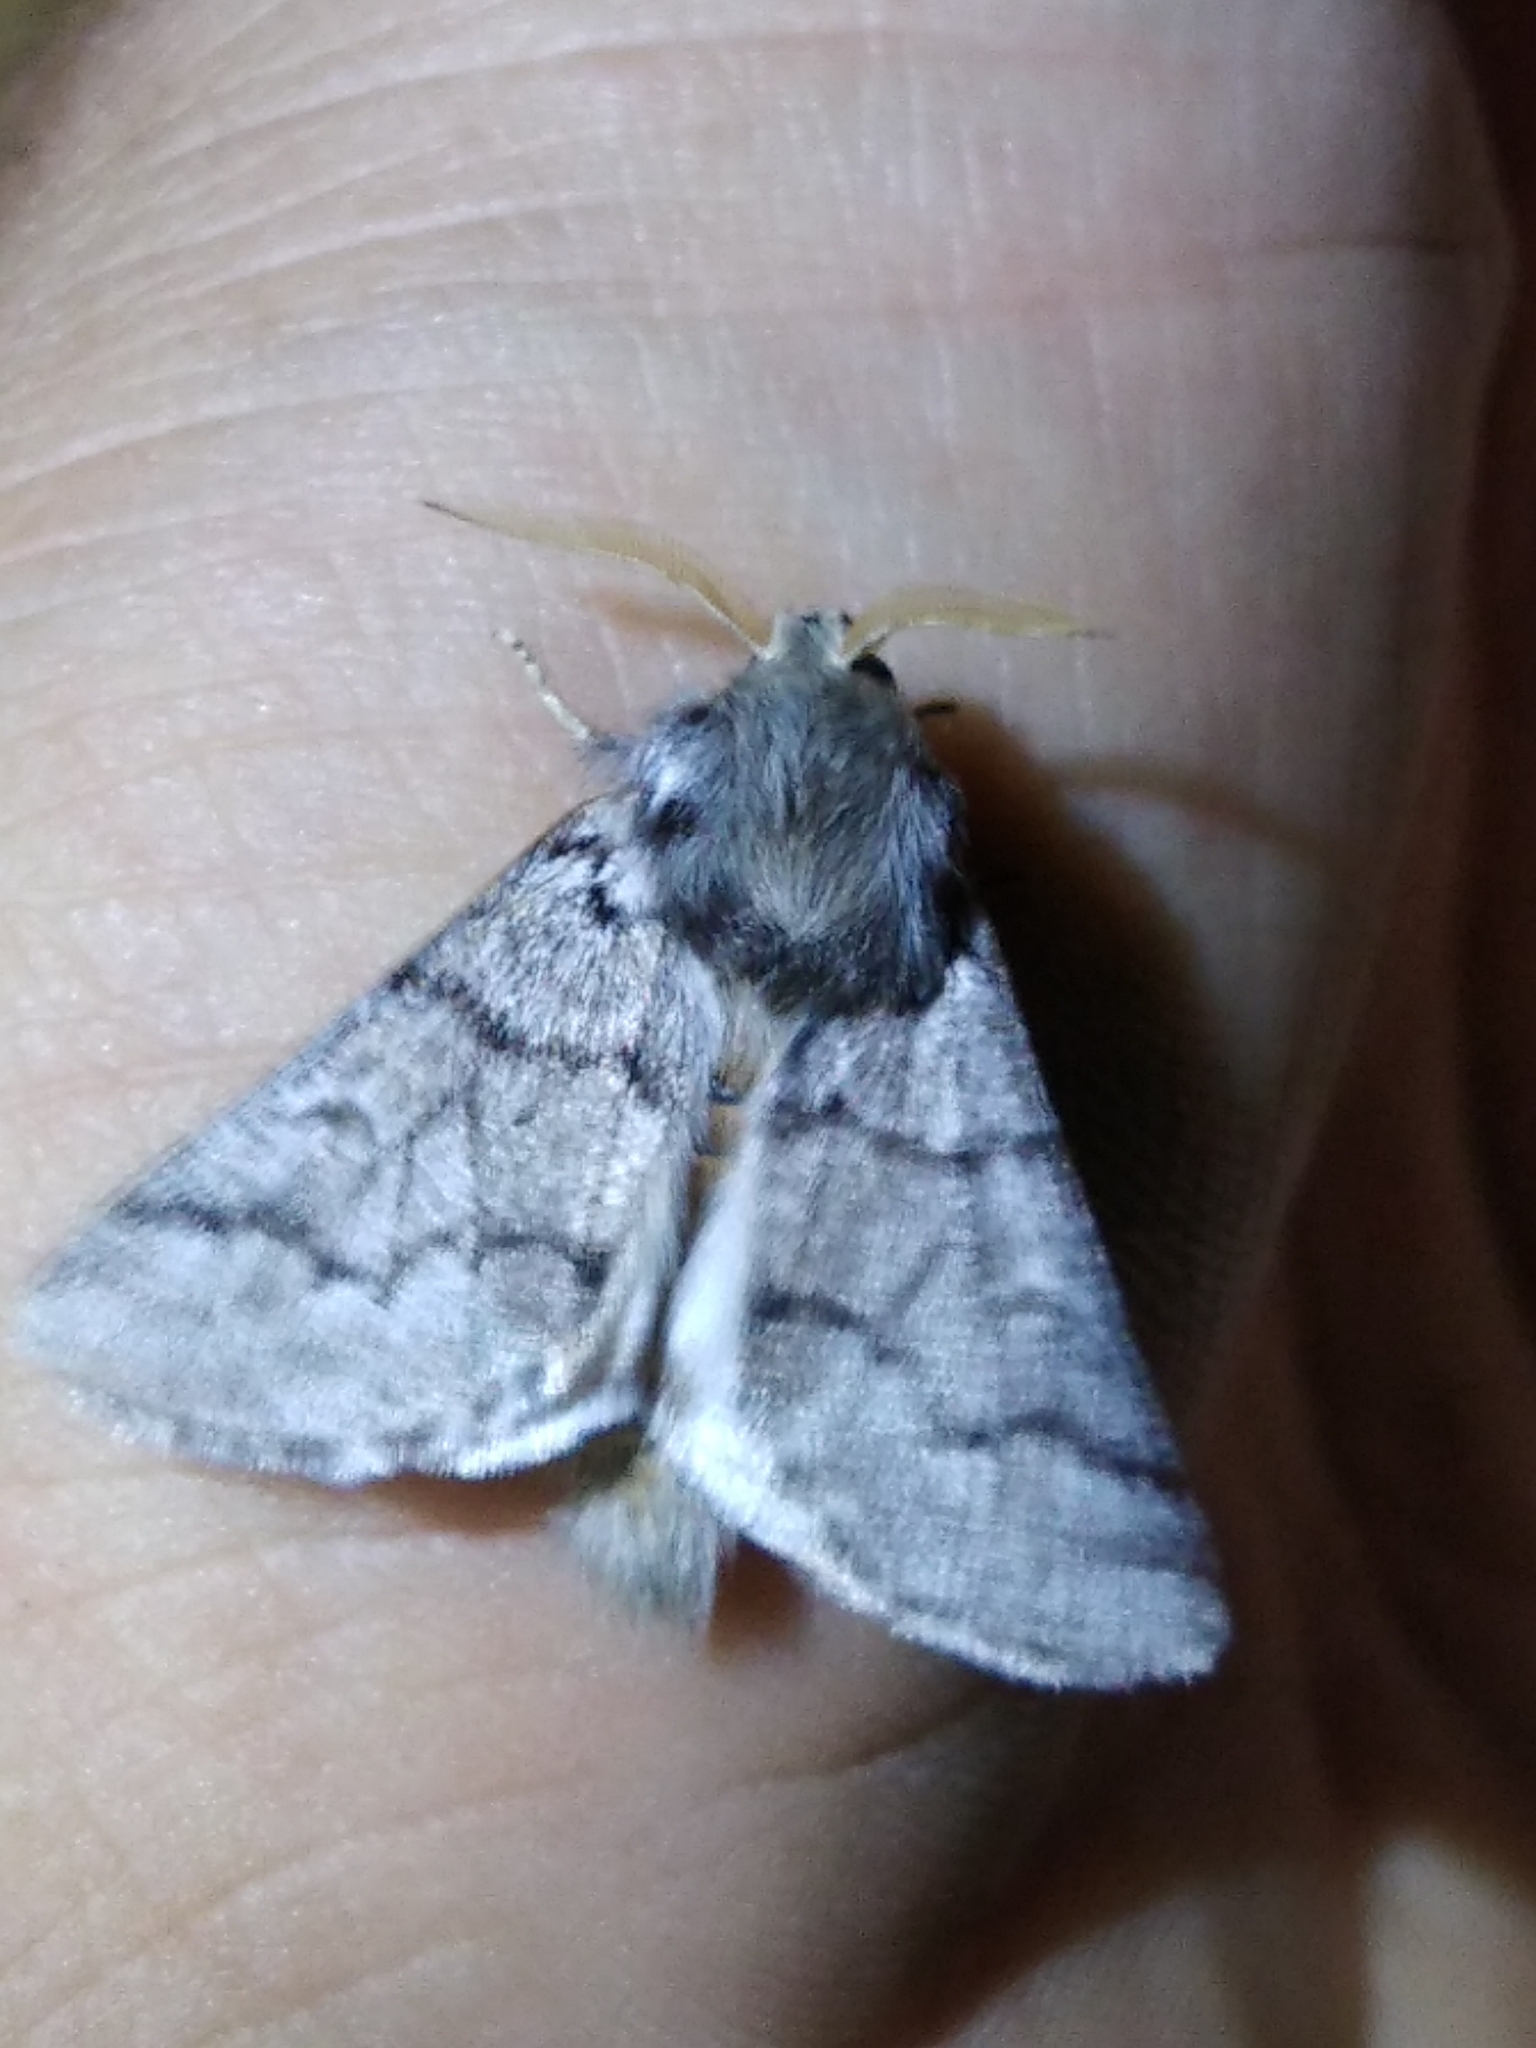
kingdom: Animalia
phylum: Arthropoda
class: Insecta
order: Lepidoptera
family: Notodontidae
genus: Thaumetopoea
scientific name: Thaumetopoea pityocampa
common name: Pine processionary
